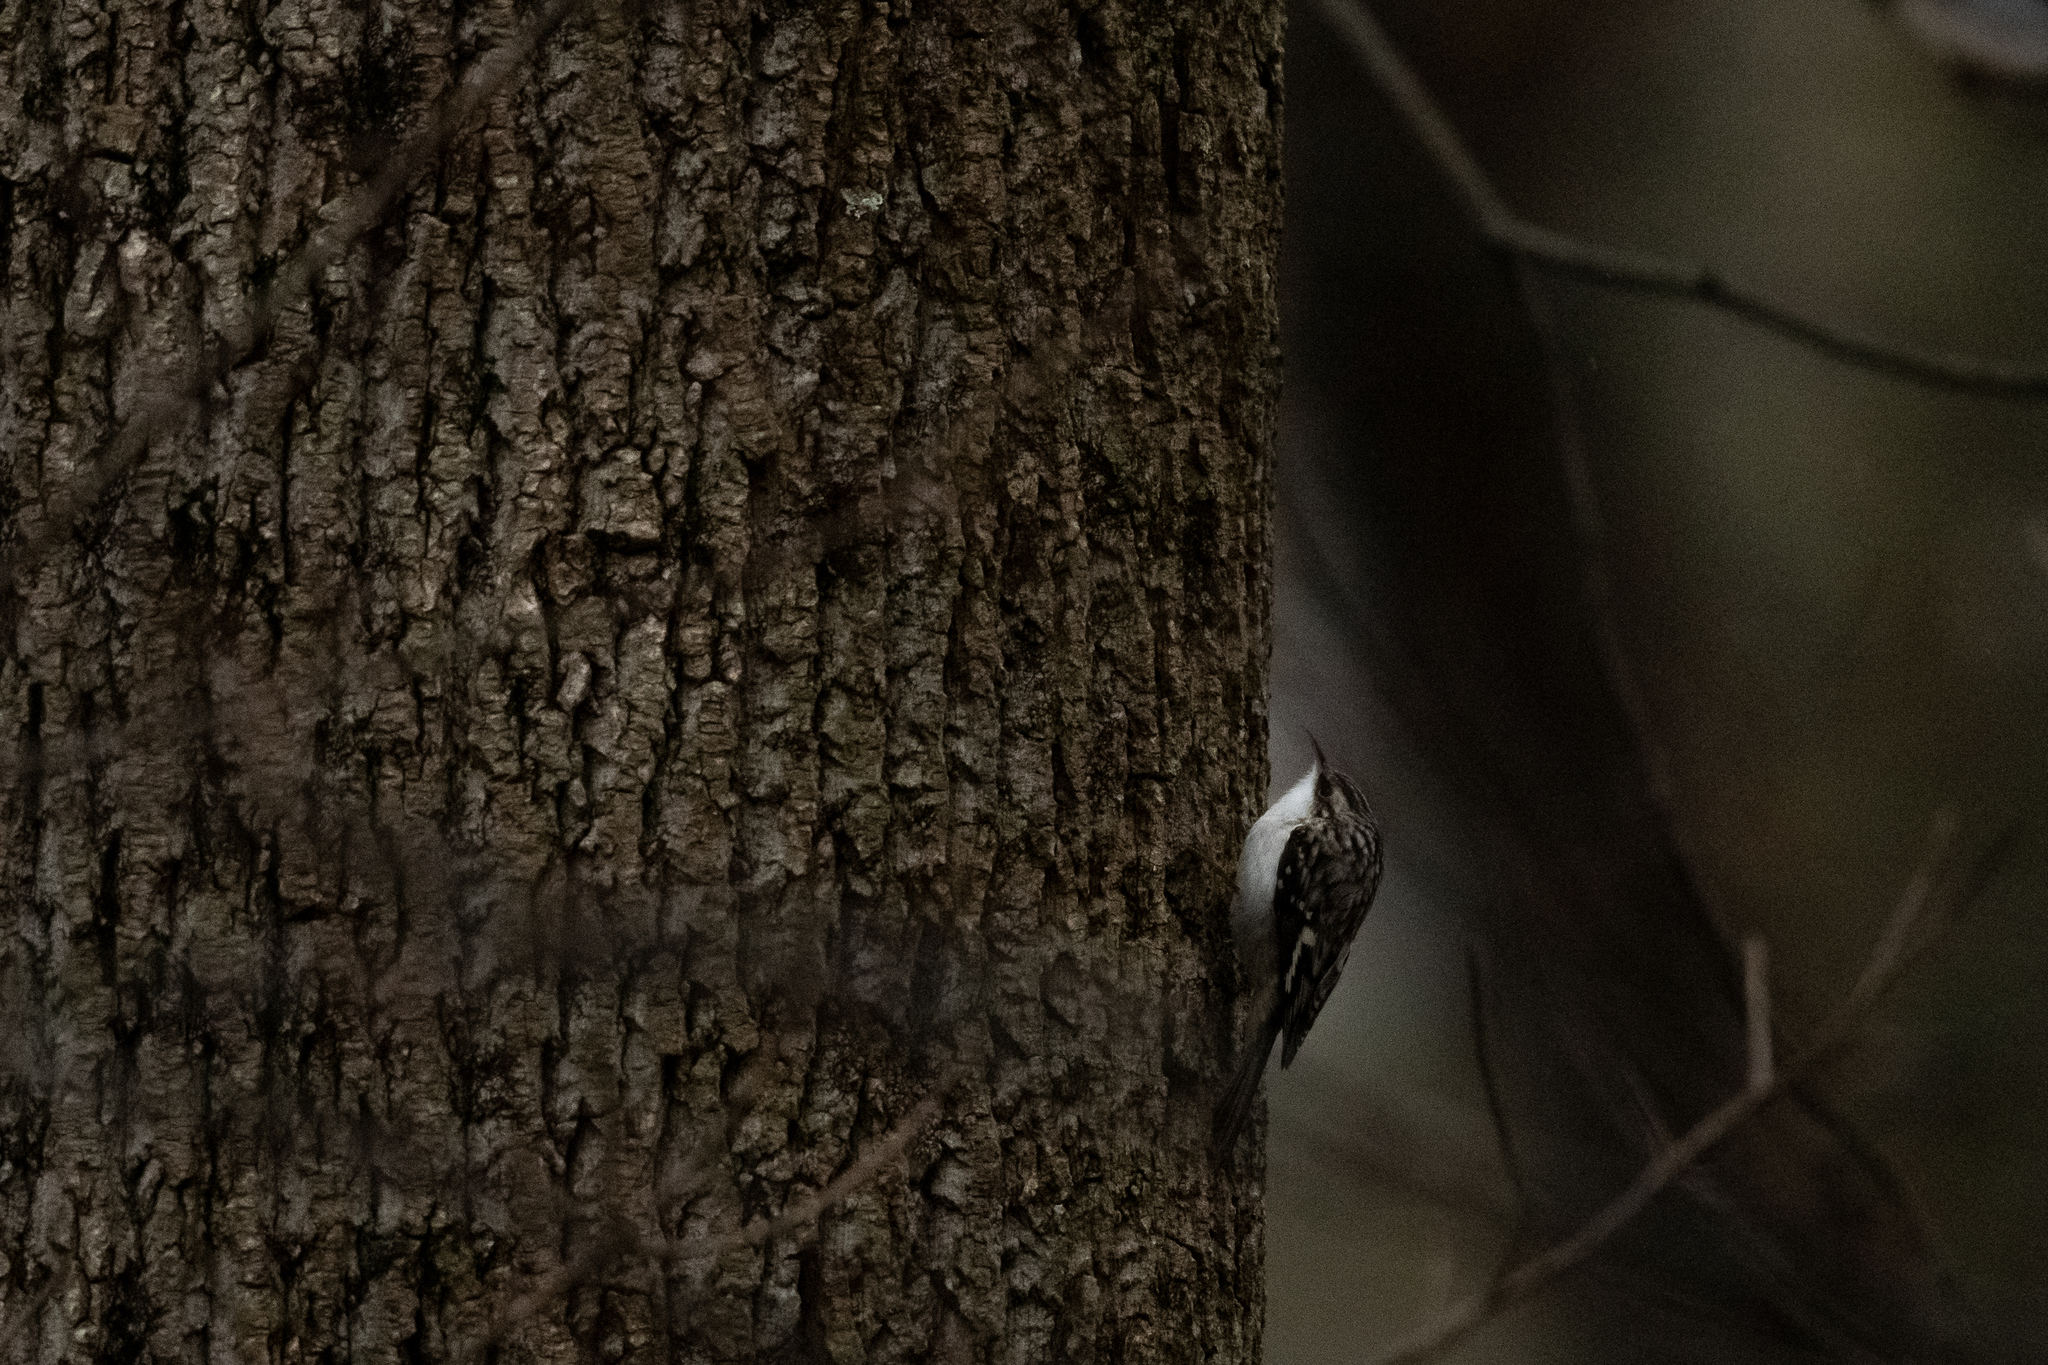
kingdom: Animalia
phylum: Chordata
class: Aves
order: Passeriformes
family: Certhiidae
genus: Certhia
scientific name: Certhia americana
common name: Brown creeper
